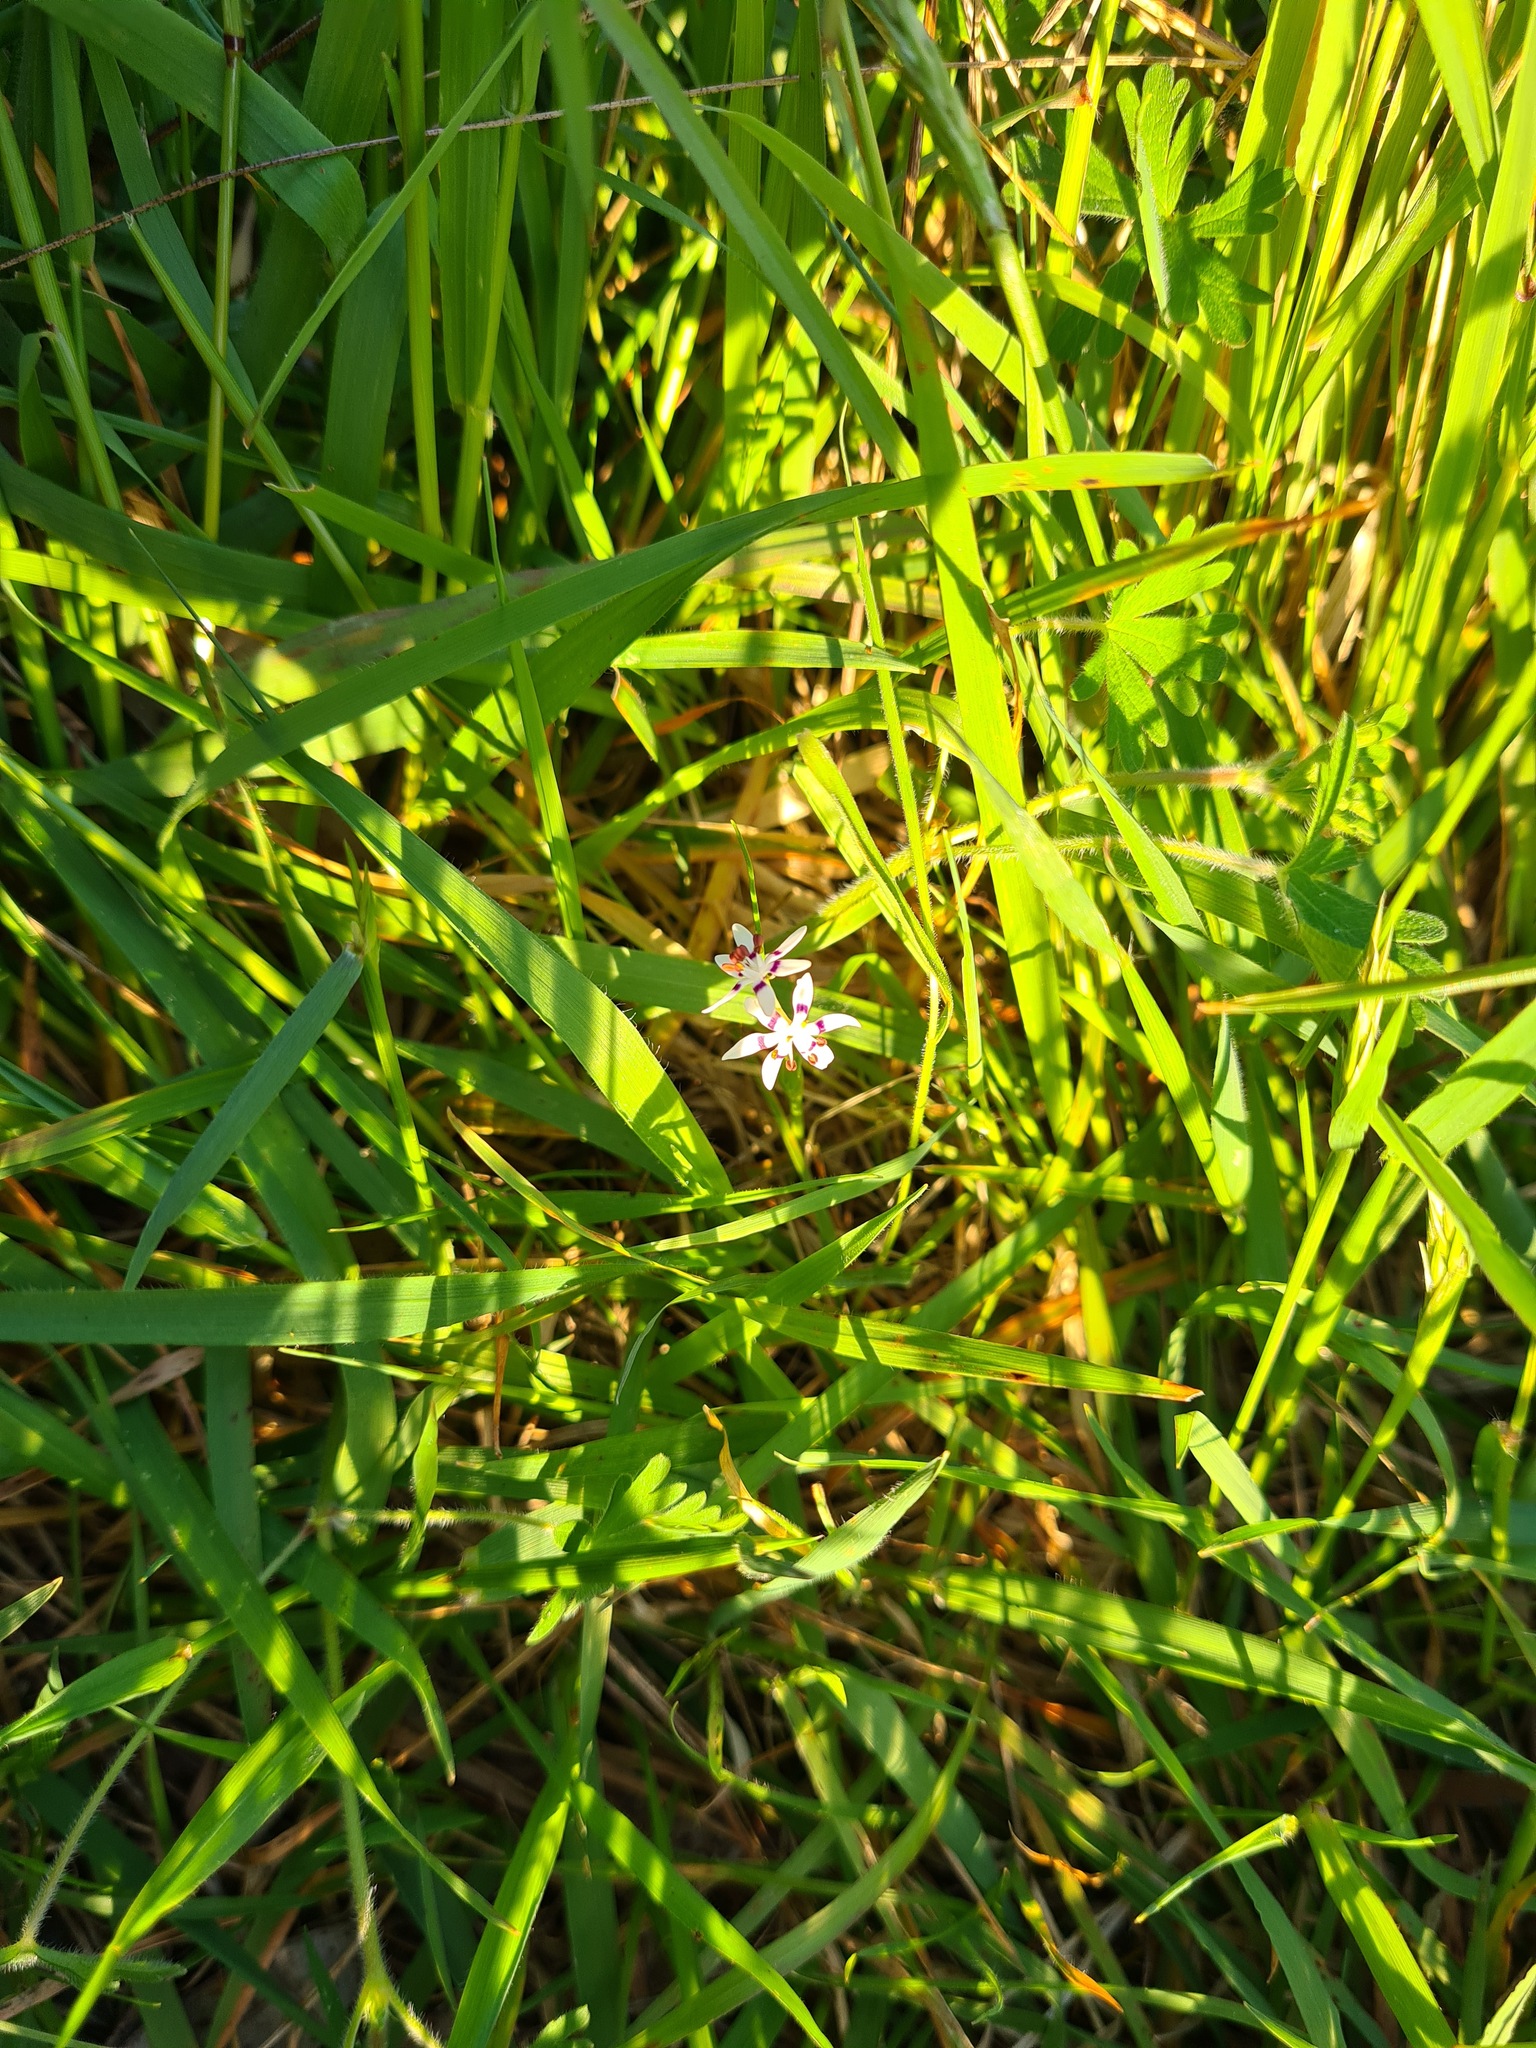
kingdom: Plantae
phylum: Tracheophyta
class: Liliopsida
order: Liliales
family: Colchicaceae
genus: Wurmbea
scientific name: Wurmbea dioica
